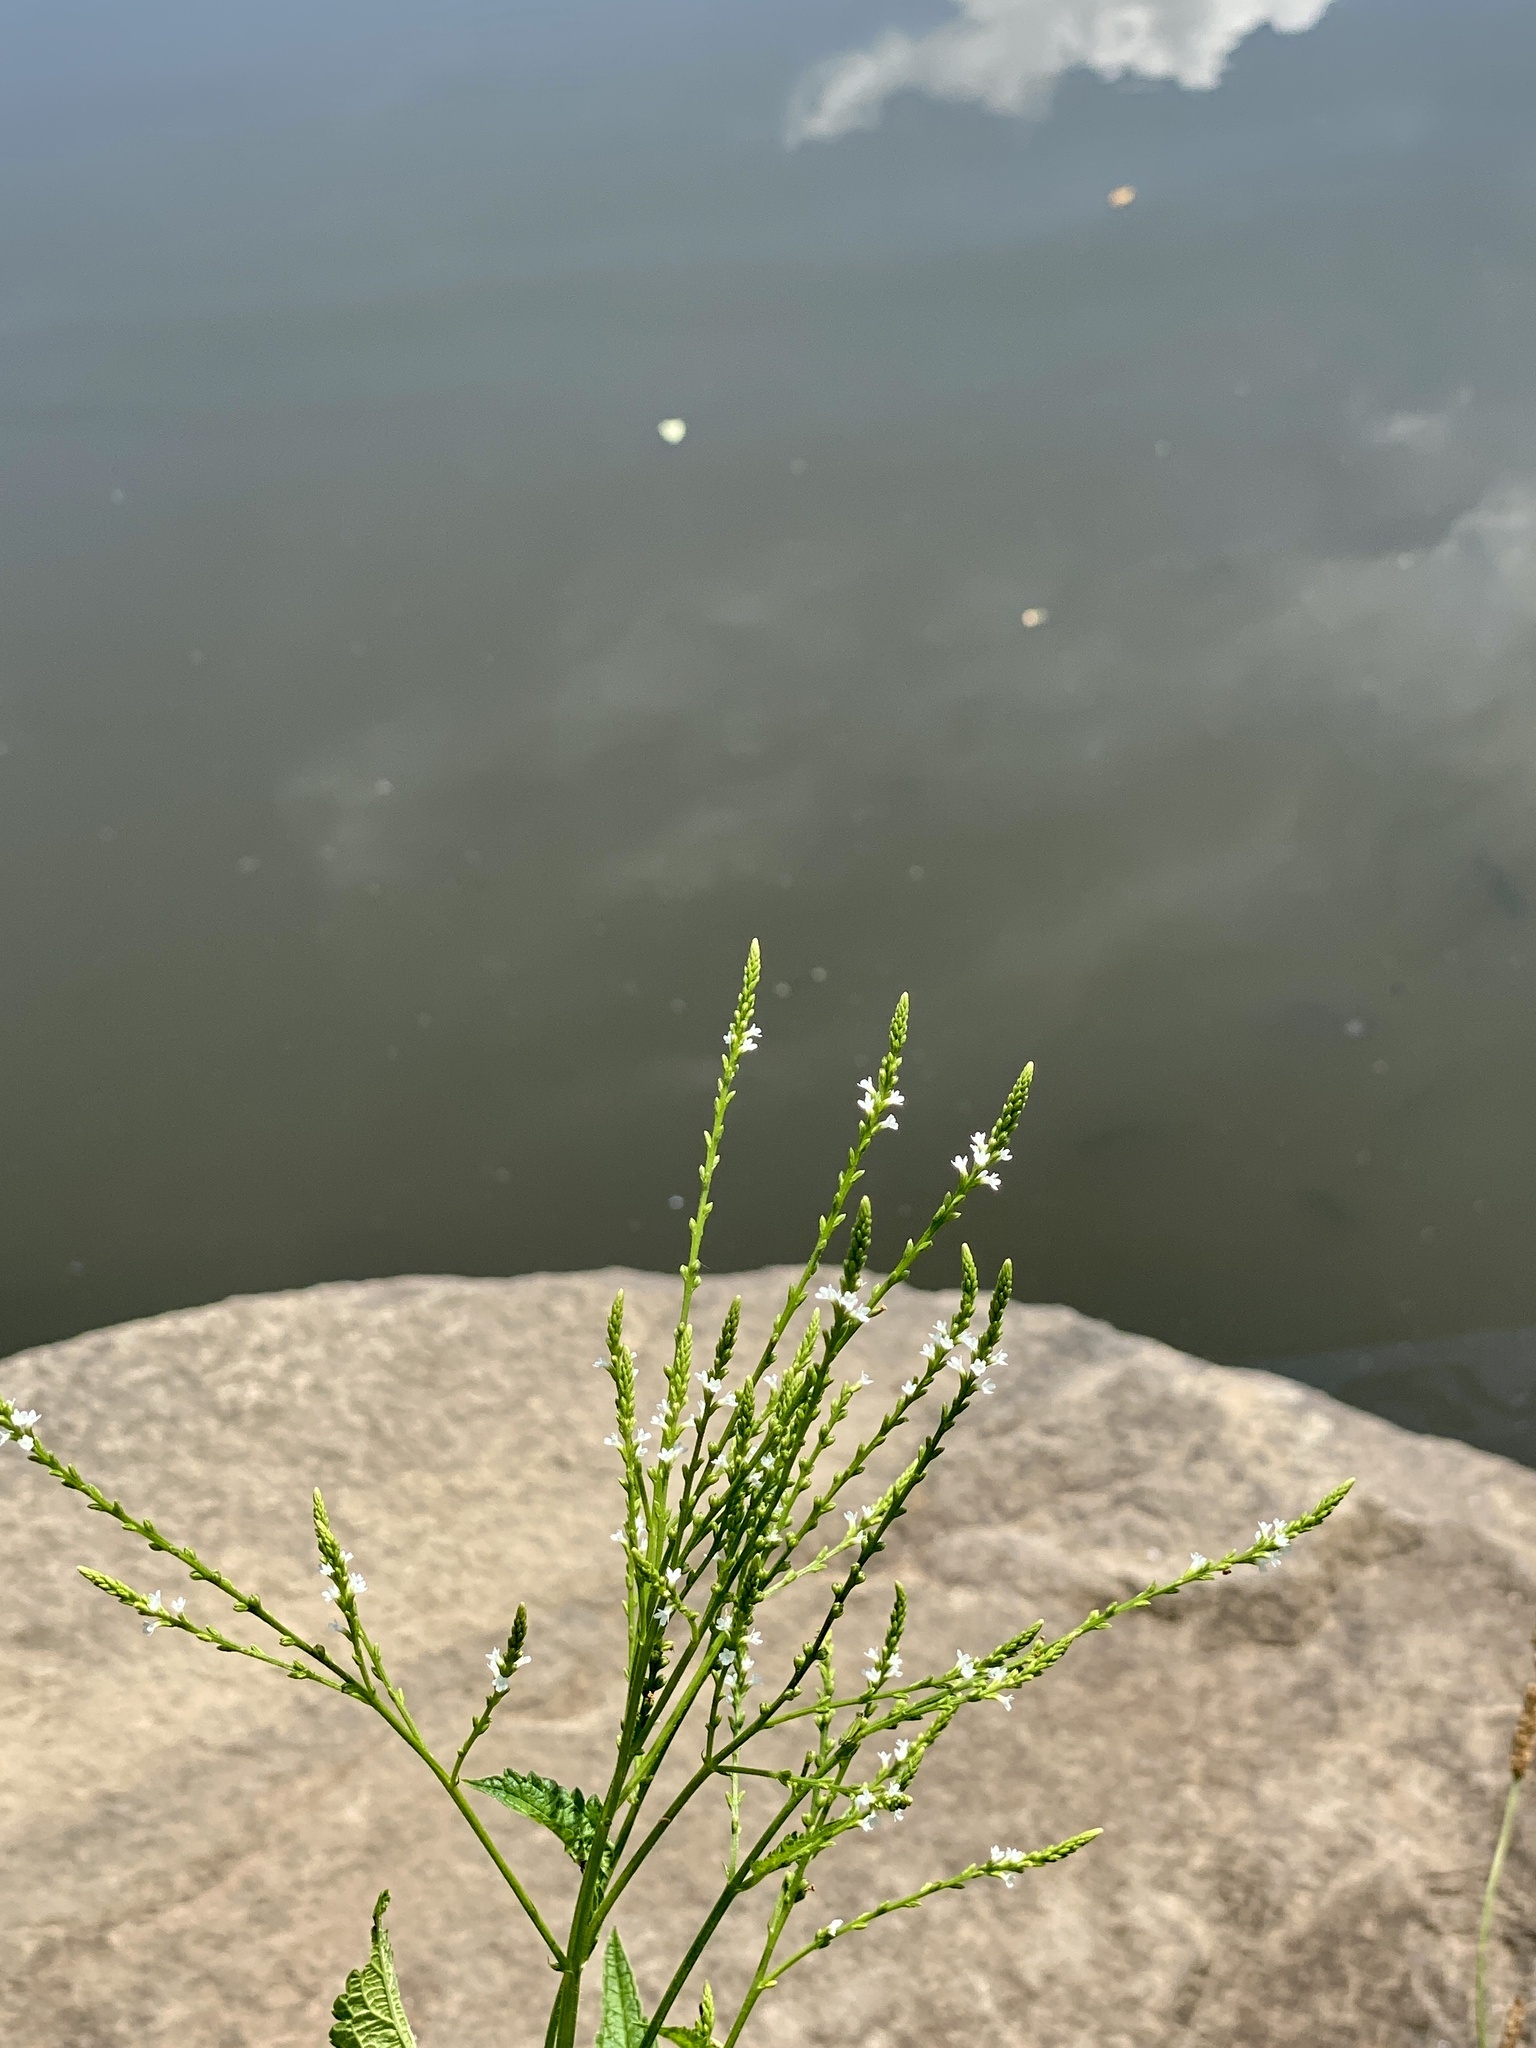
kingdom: Plantae
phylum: Tracheophyta
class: Magnoliopsida
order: Lamiales
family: Verbenaceae
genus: Verbena
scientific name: Verbena urticifolia
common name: Nettle-leaved vervain
